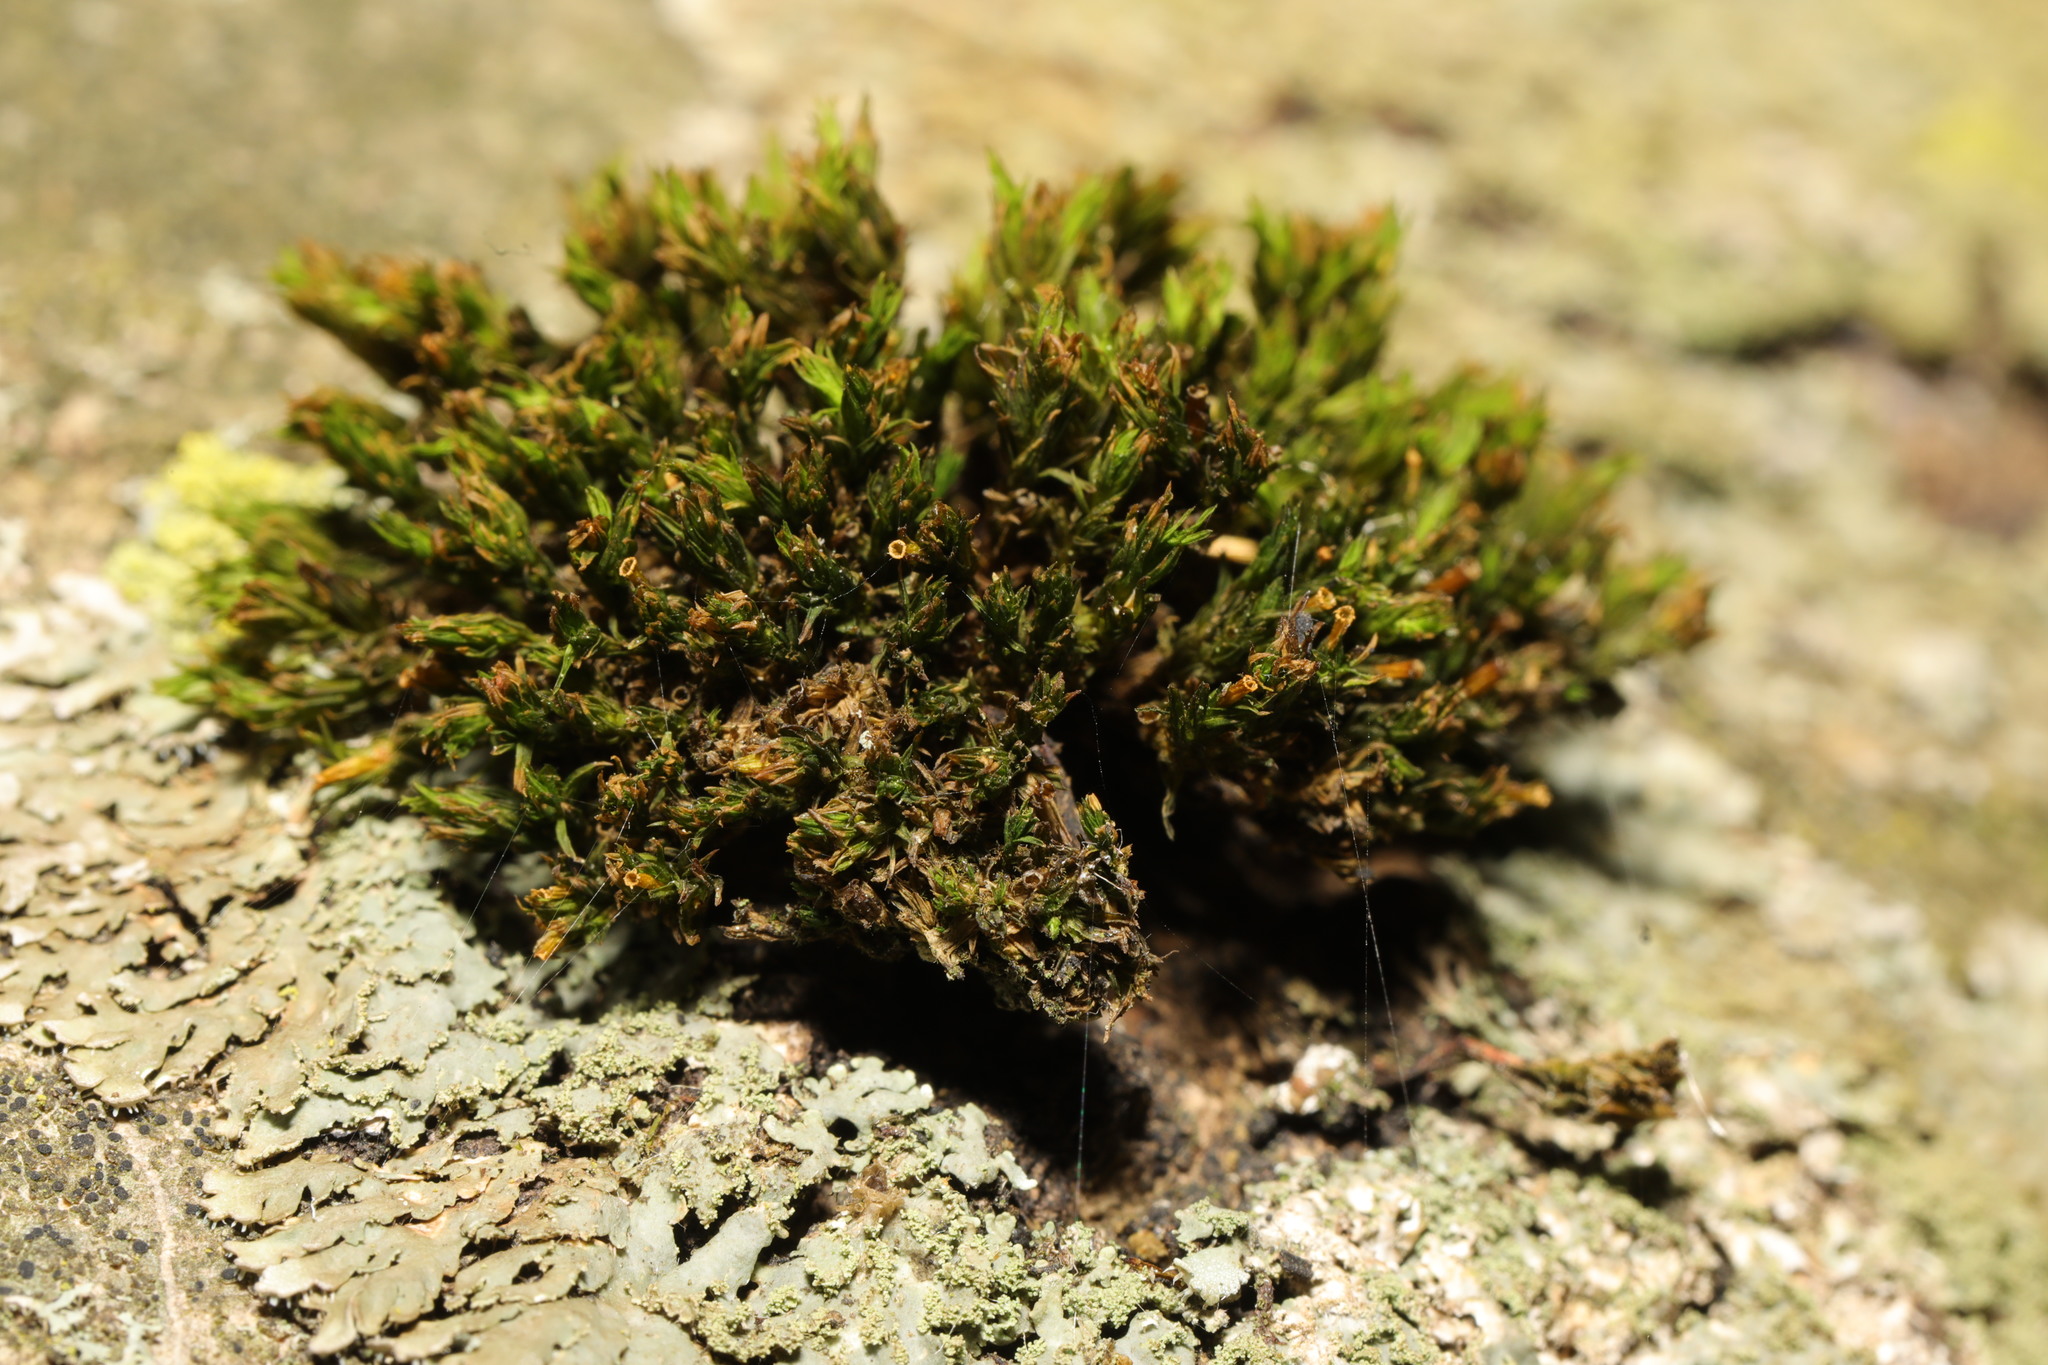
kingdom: Plantae
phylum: Bryophyta
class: Bryopsida
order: Orthotrichales
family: Orthotrichaceae
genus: Lewinskya
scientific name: Lewinskya affinis
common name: Wood bristle-moss
